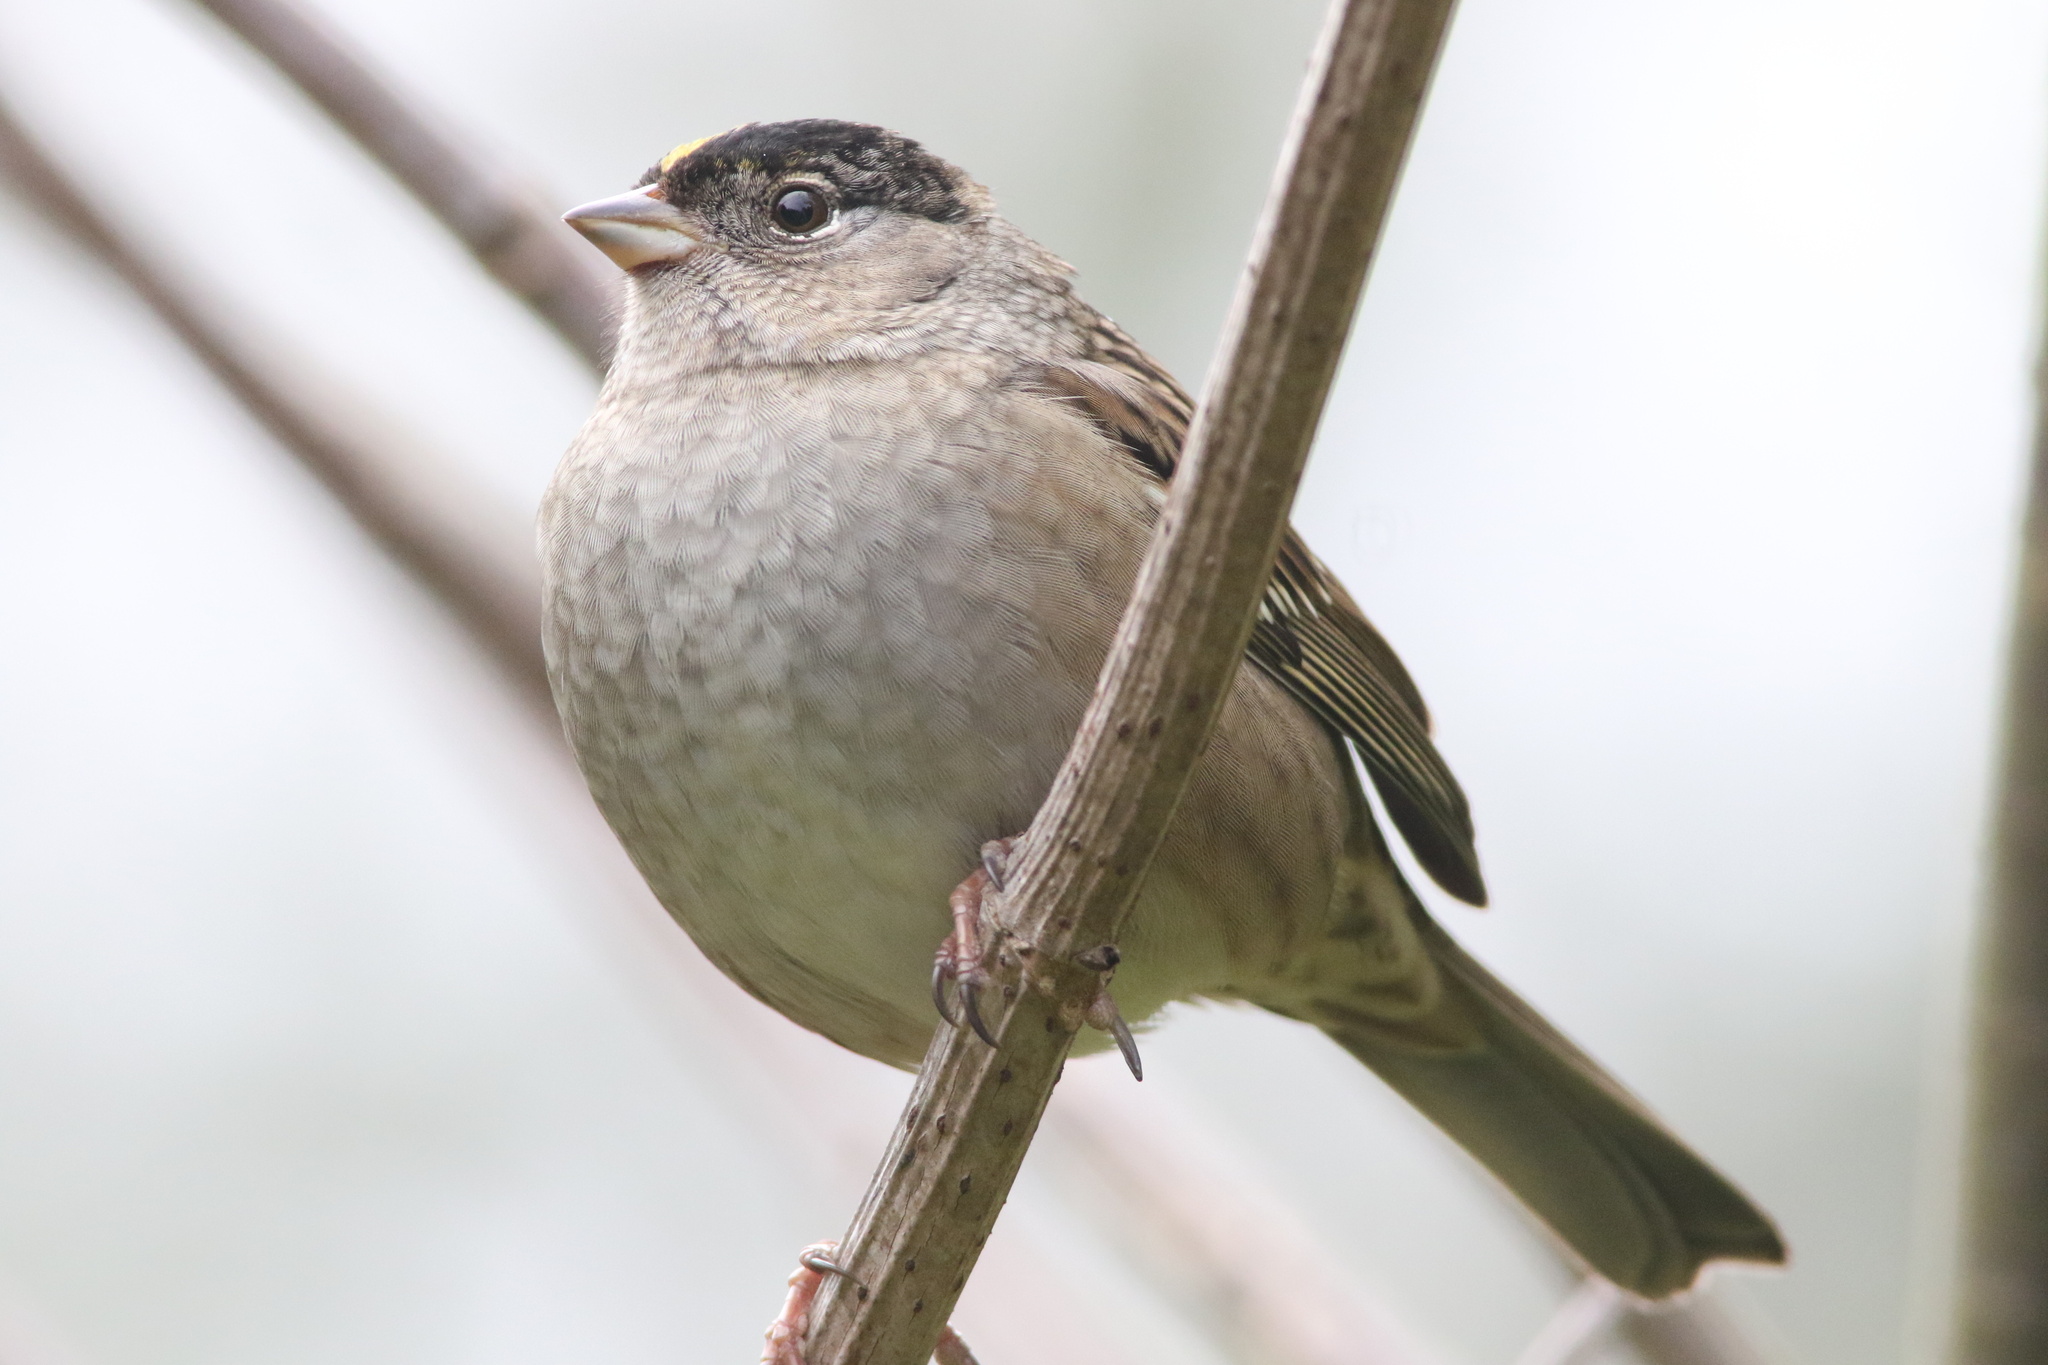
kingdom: Animalia
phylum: Chordata
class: Aves
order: Passeriformes
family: Passerellidae
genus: Zonotrichia
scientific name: Zonotrichia atricapilla
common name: Golden-crowned sparrow
